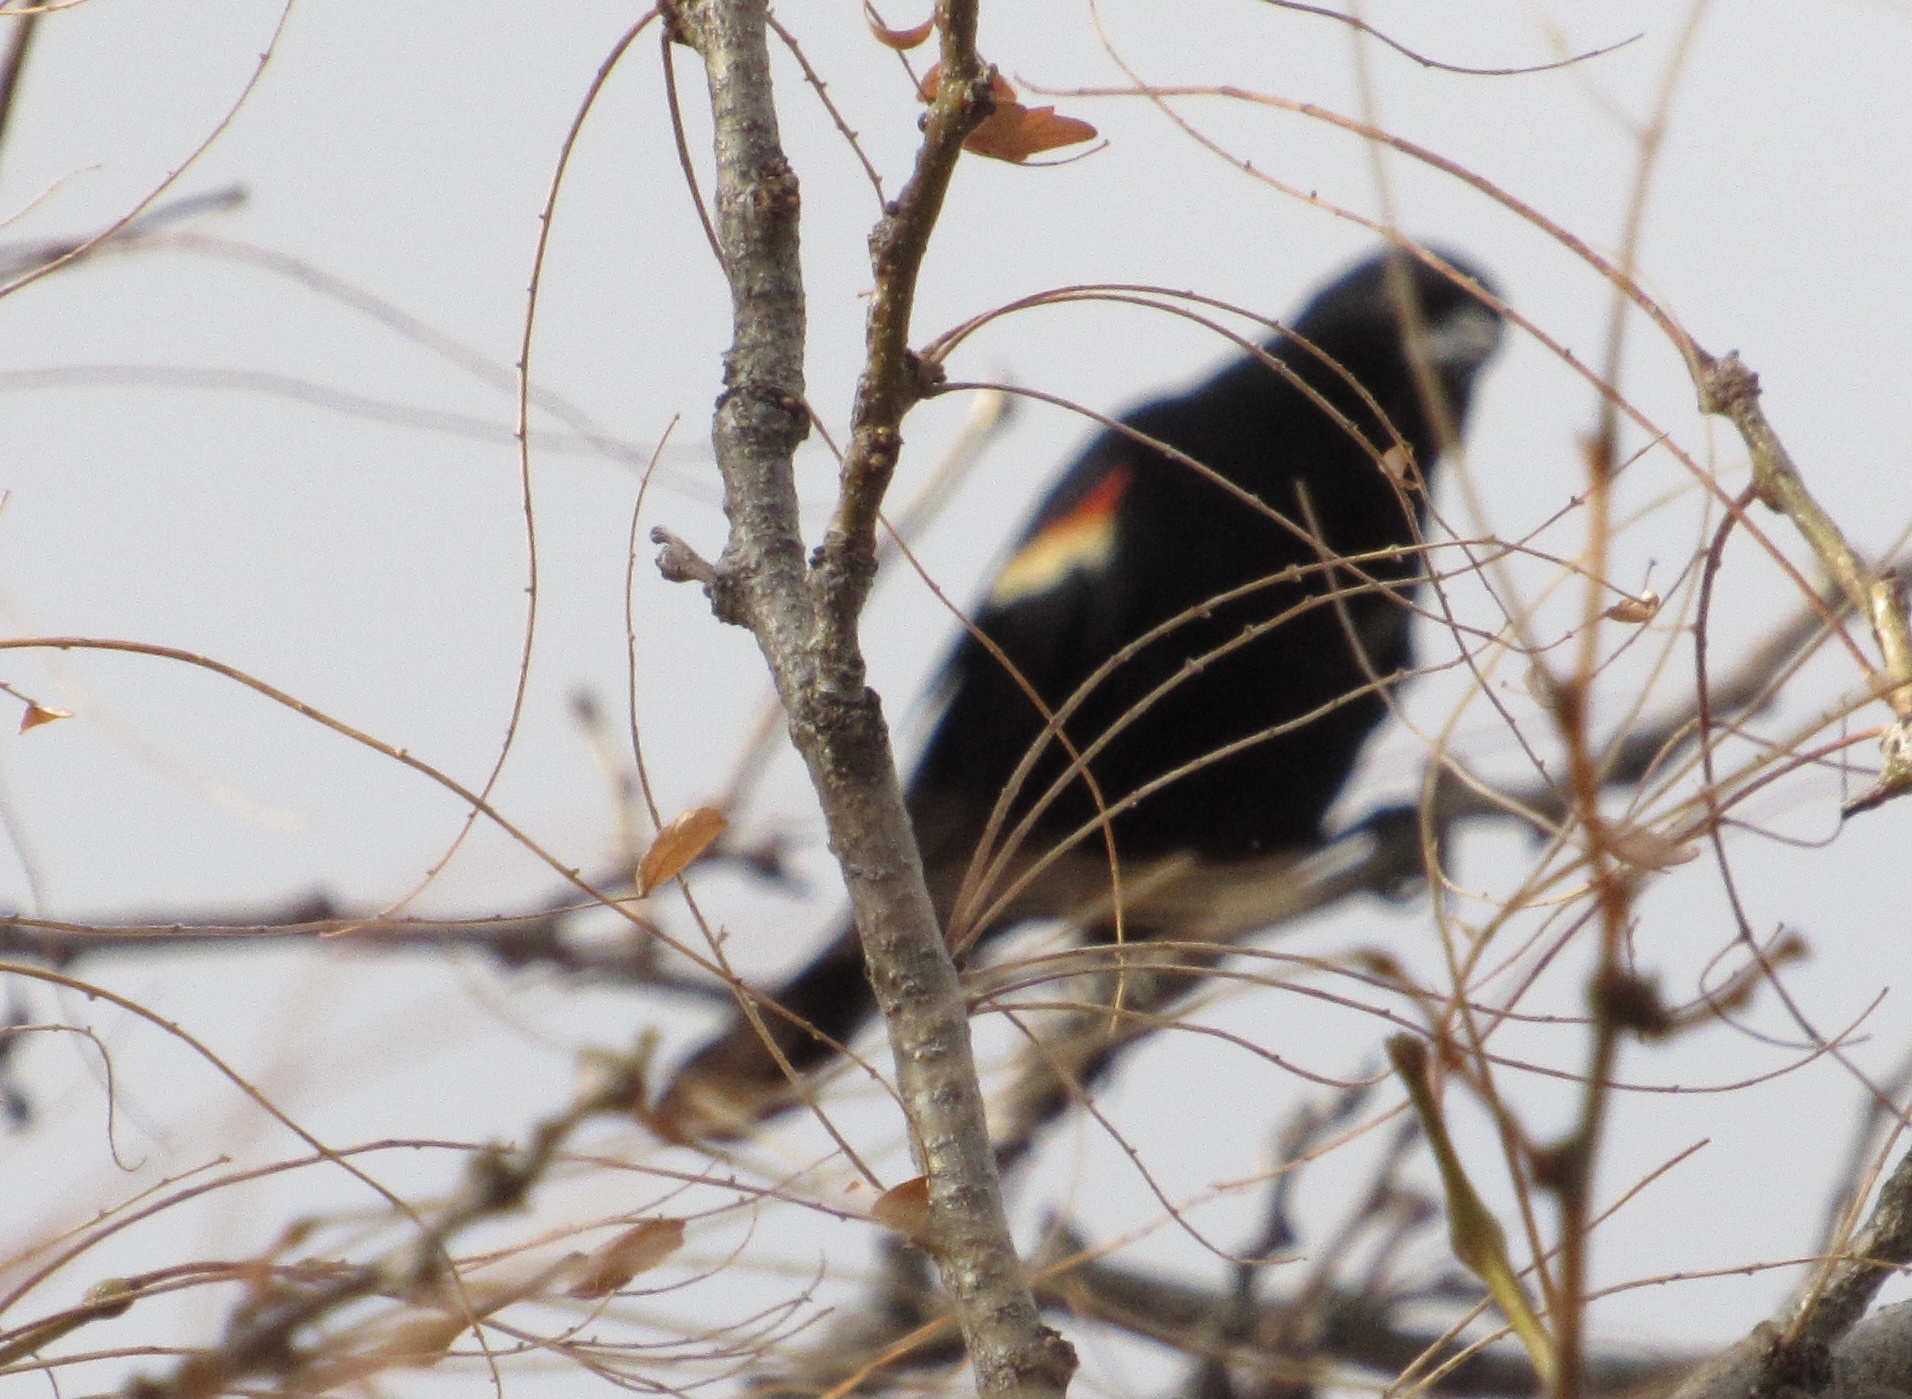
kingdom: Animalia
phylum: Chordata
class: Aves
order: Passeriformes
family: Icteridae
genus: Agelaius
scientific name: Agelaius phoeniceus
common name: Red-winged blackbird
